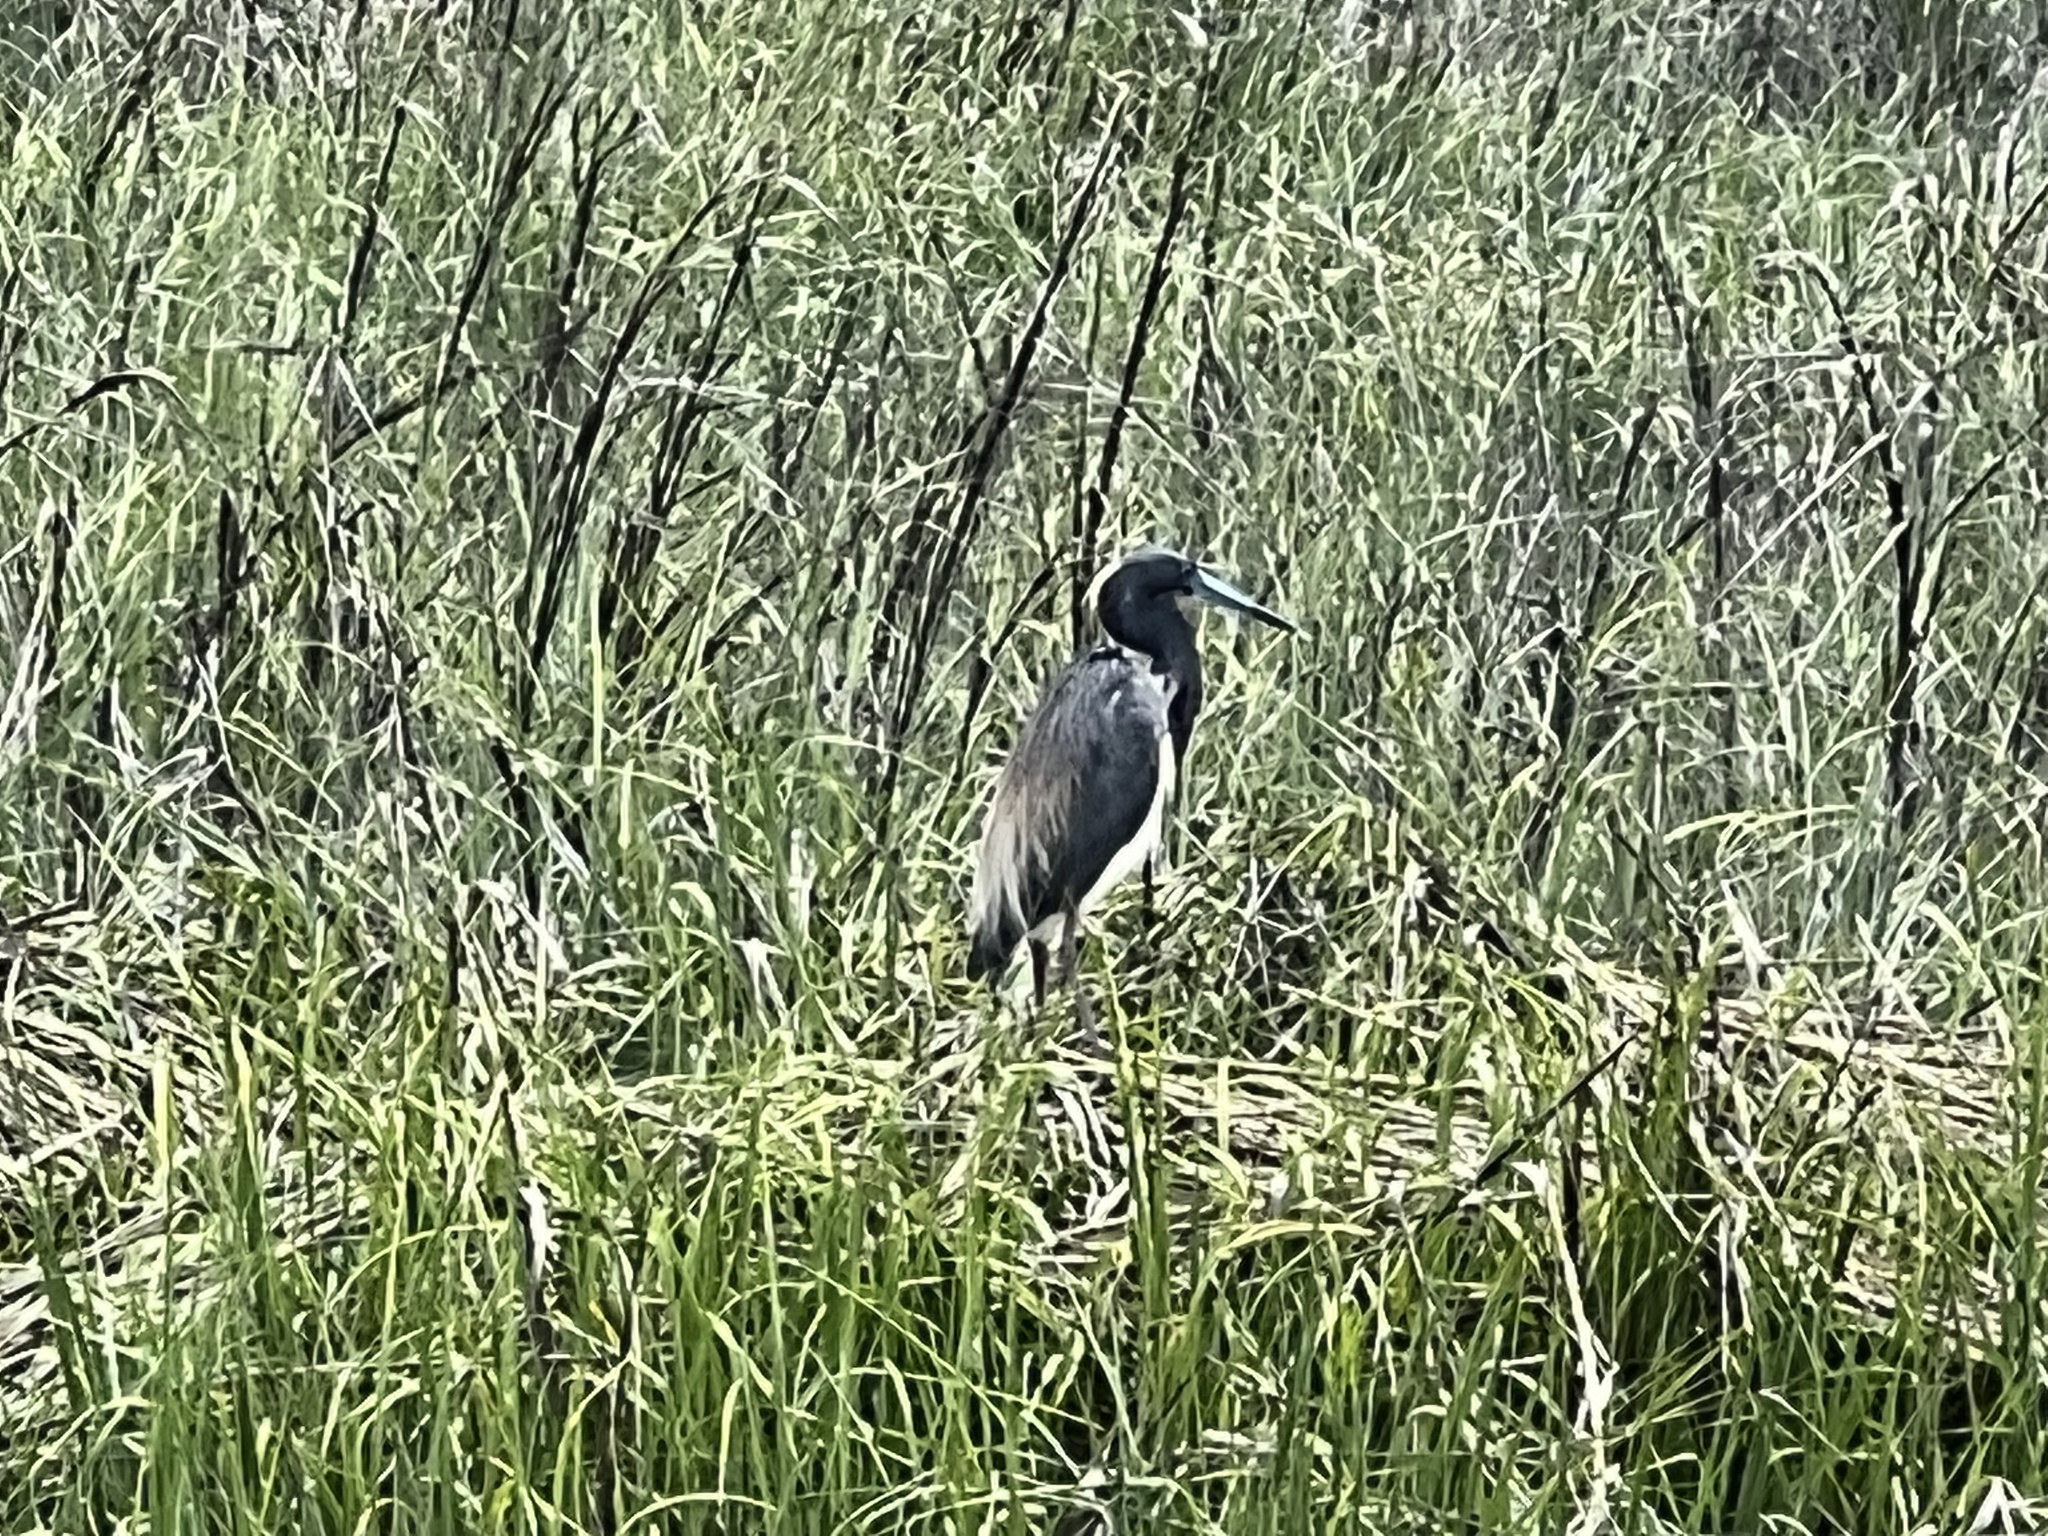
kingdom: Animalia
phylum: Chordata
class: Aves
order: Pelecaniformes
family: Ardeidae
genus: Egretta
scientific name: Egretta tricolor
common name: Tricolored heron
